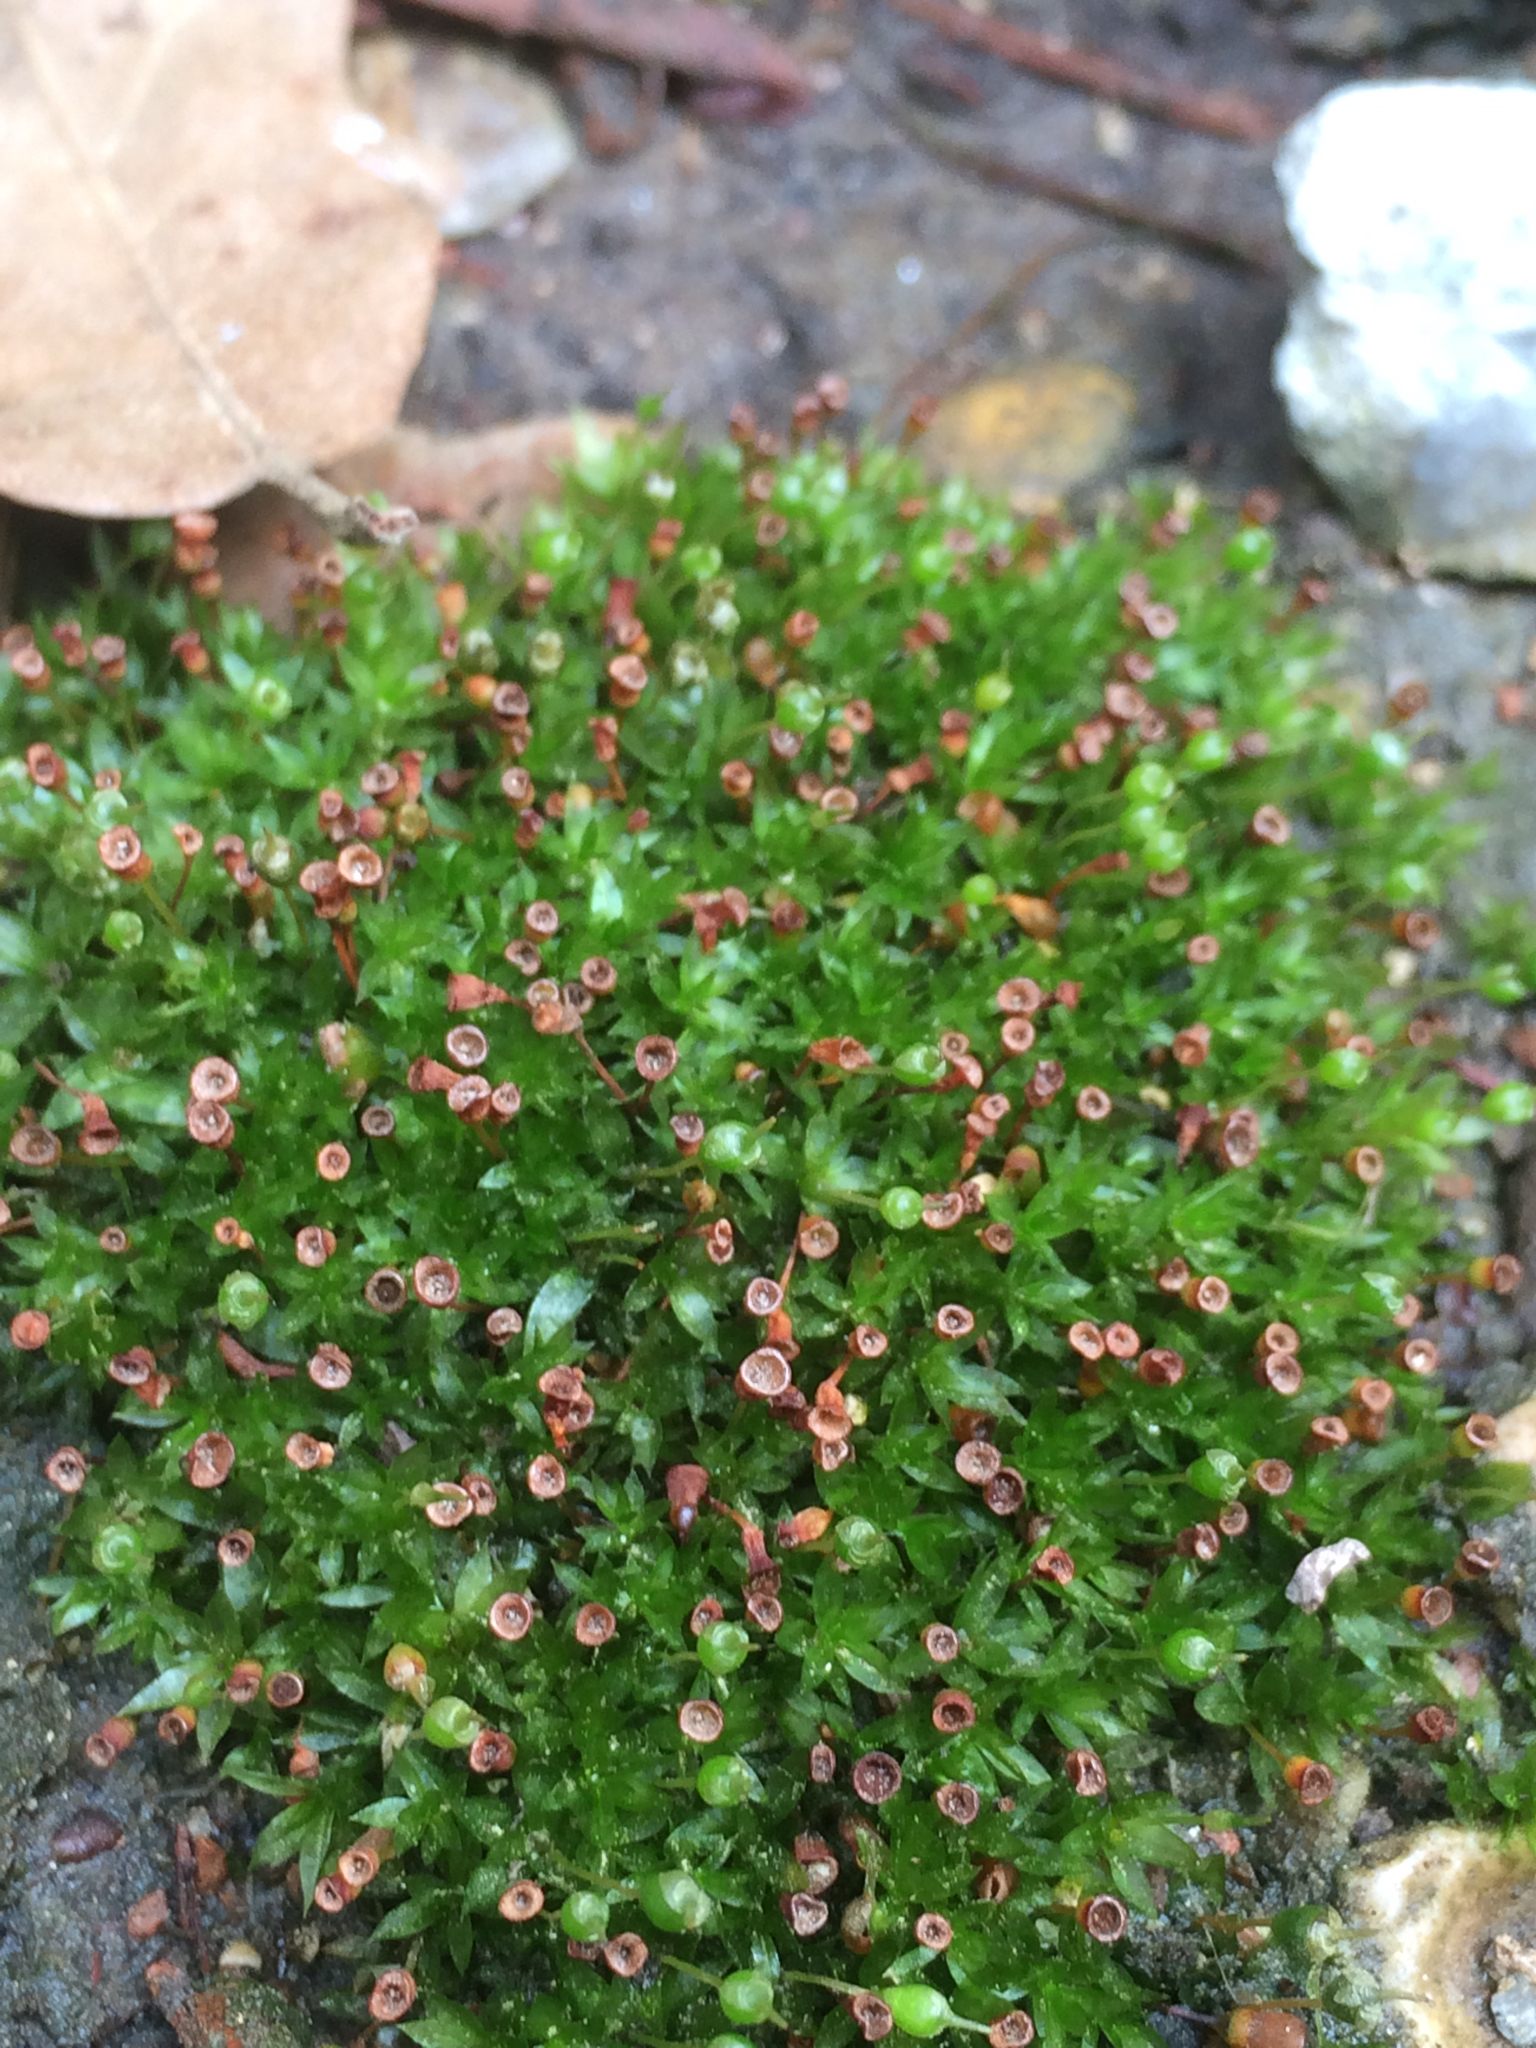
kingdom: Plantae
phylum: Bryophyta
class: Bryopsida
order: Funariales
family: Funariaceae
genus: Physcomitrium
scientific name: Physcomitrium pyriforme
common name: Common bladder-moss
